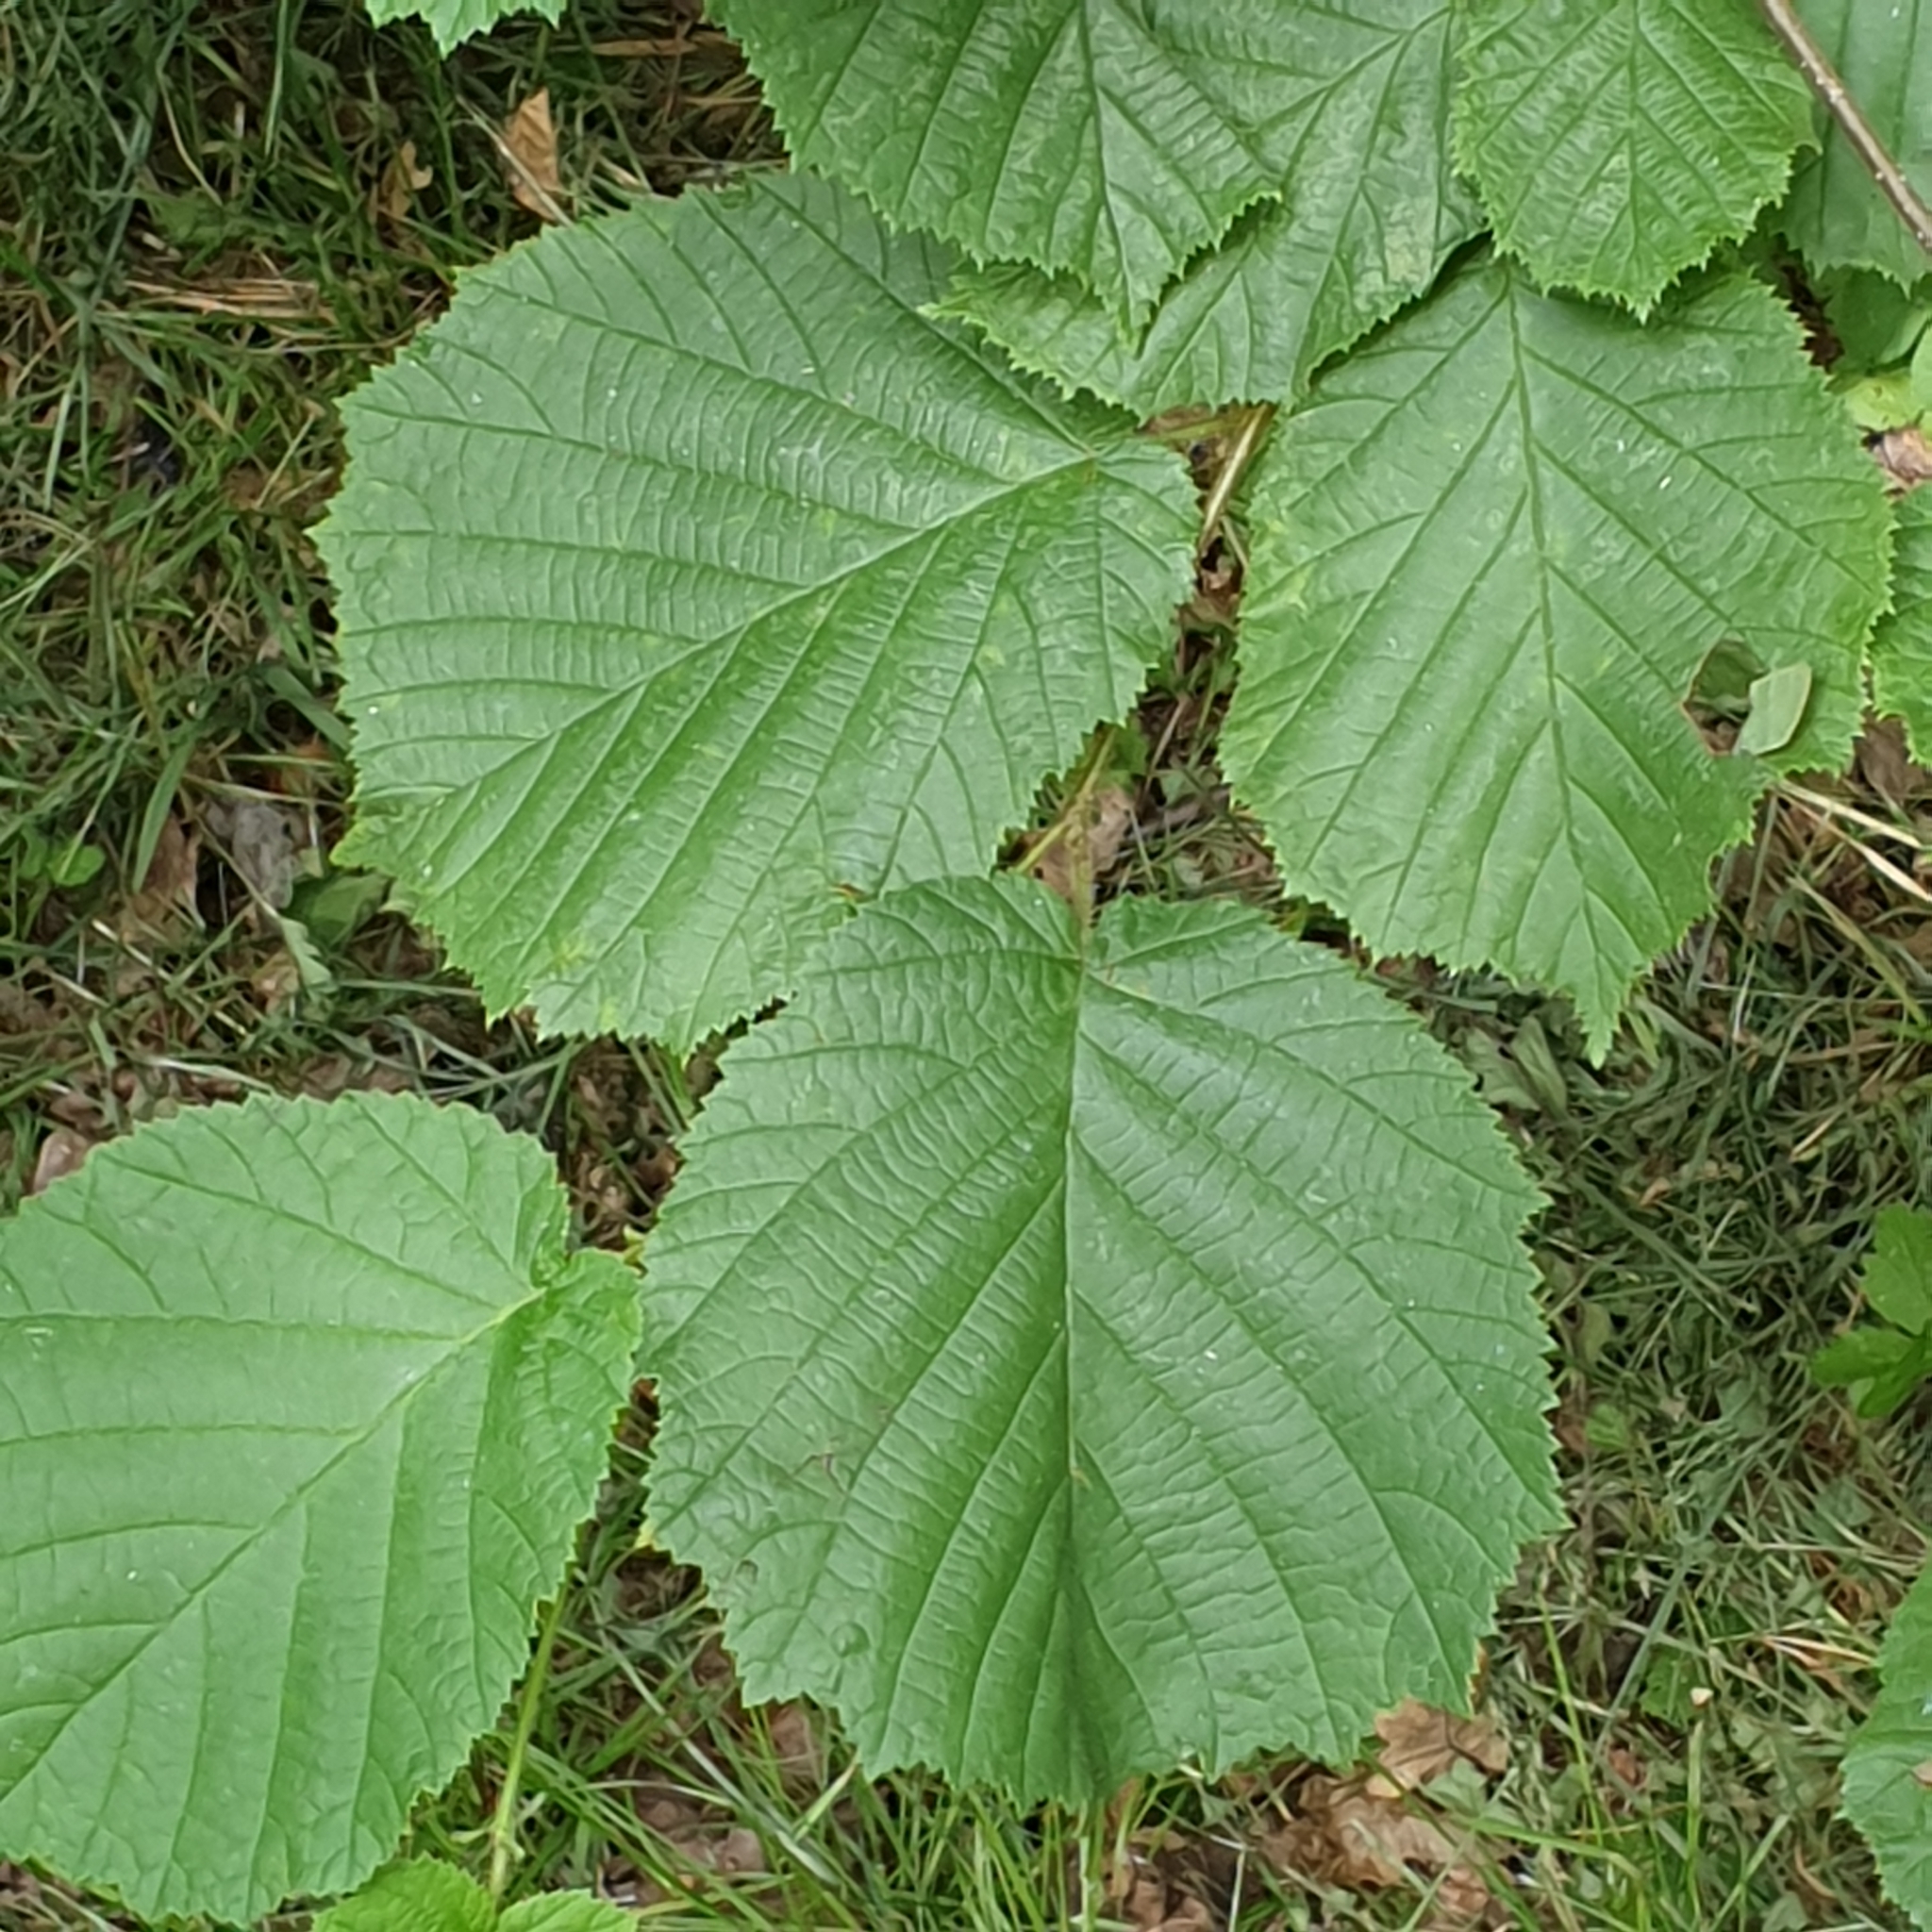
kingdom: Plantae
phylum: Tracheophyta
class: Magnoliopsida
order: Fagales
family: Betulaceae
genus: Corylus
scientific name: Corylus avellana
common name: European hazel
